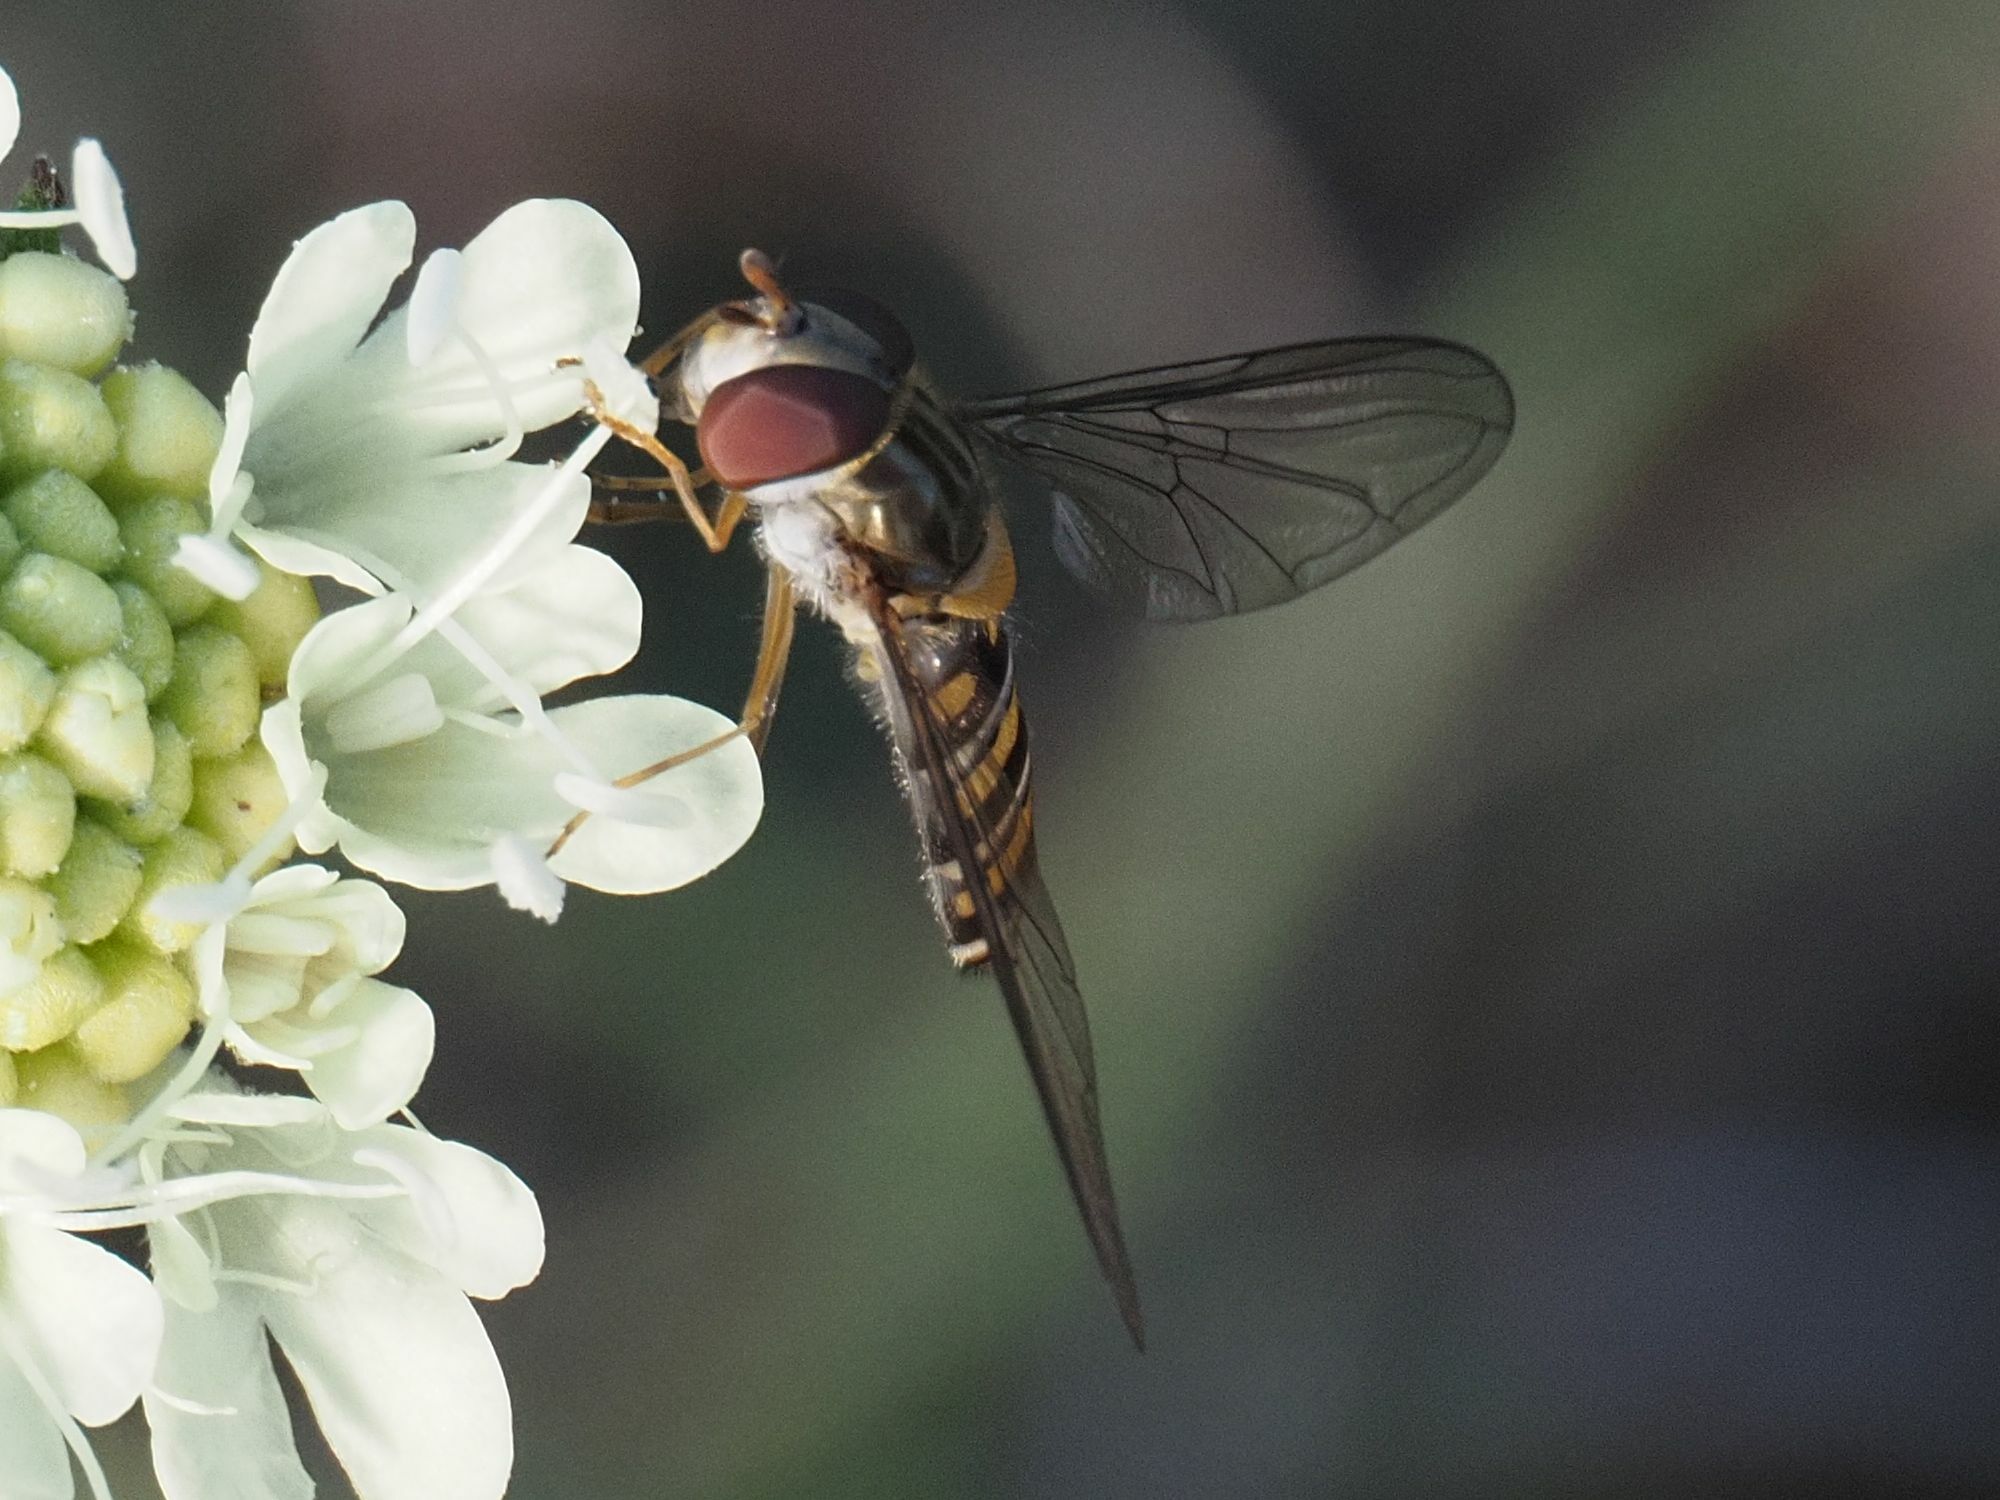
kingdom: Animalia
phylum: Arthropoda
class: Insecta
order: Diptera
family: Syrphidae
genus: Episyrphus
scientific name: Episyrphus balteatus
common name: Marmalade hoverfly
